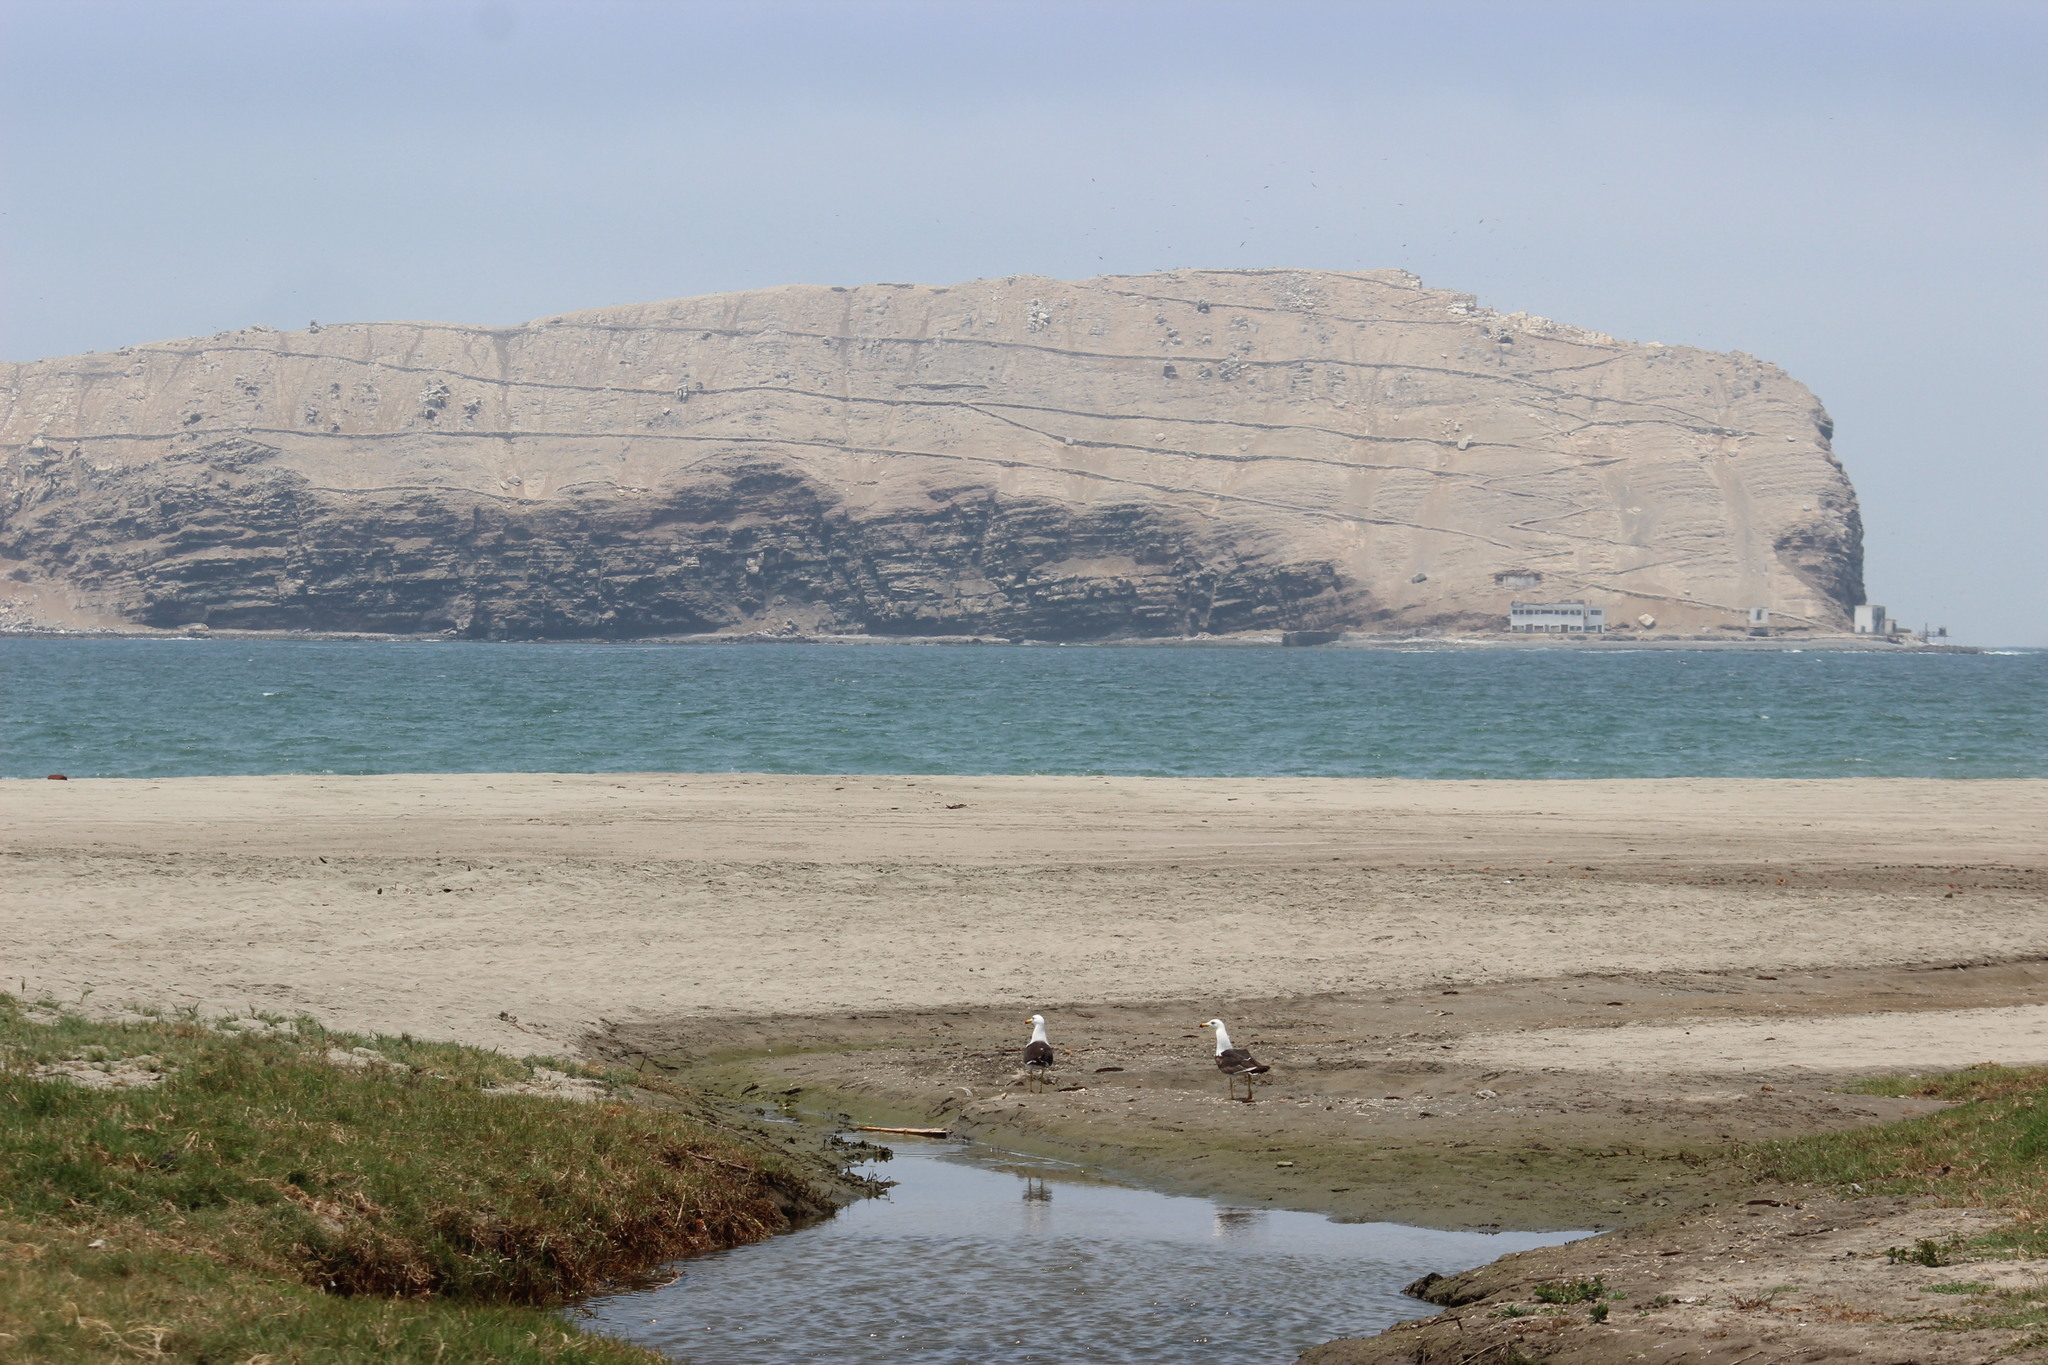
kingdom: Animalia
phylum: Chordata
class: Aves
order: Charadriiformes
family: Laridae
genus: Larus
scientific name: Larus belcheri
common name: Belcher's gull
